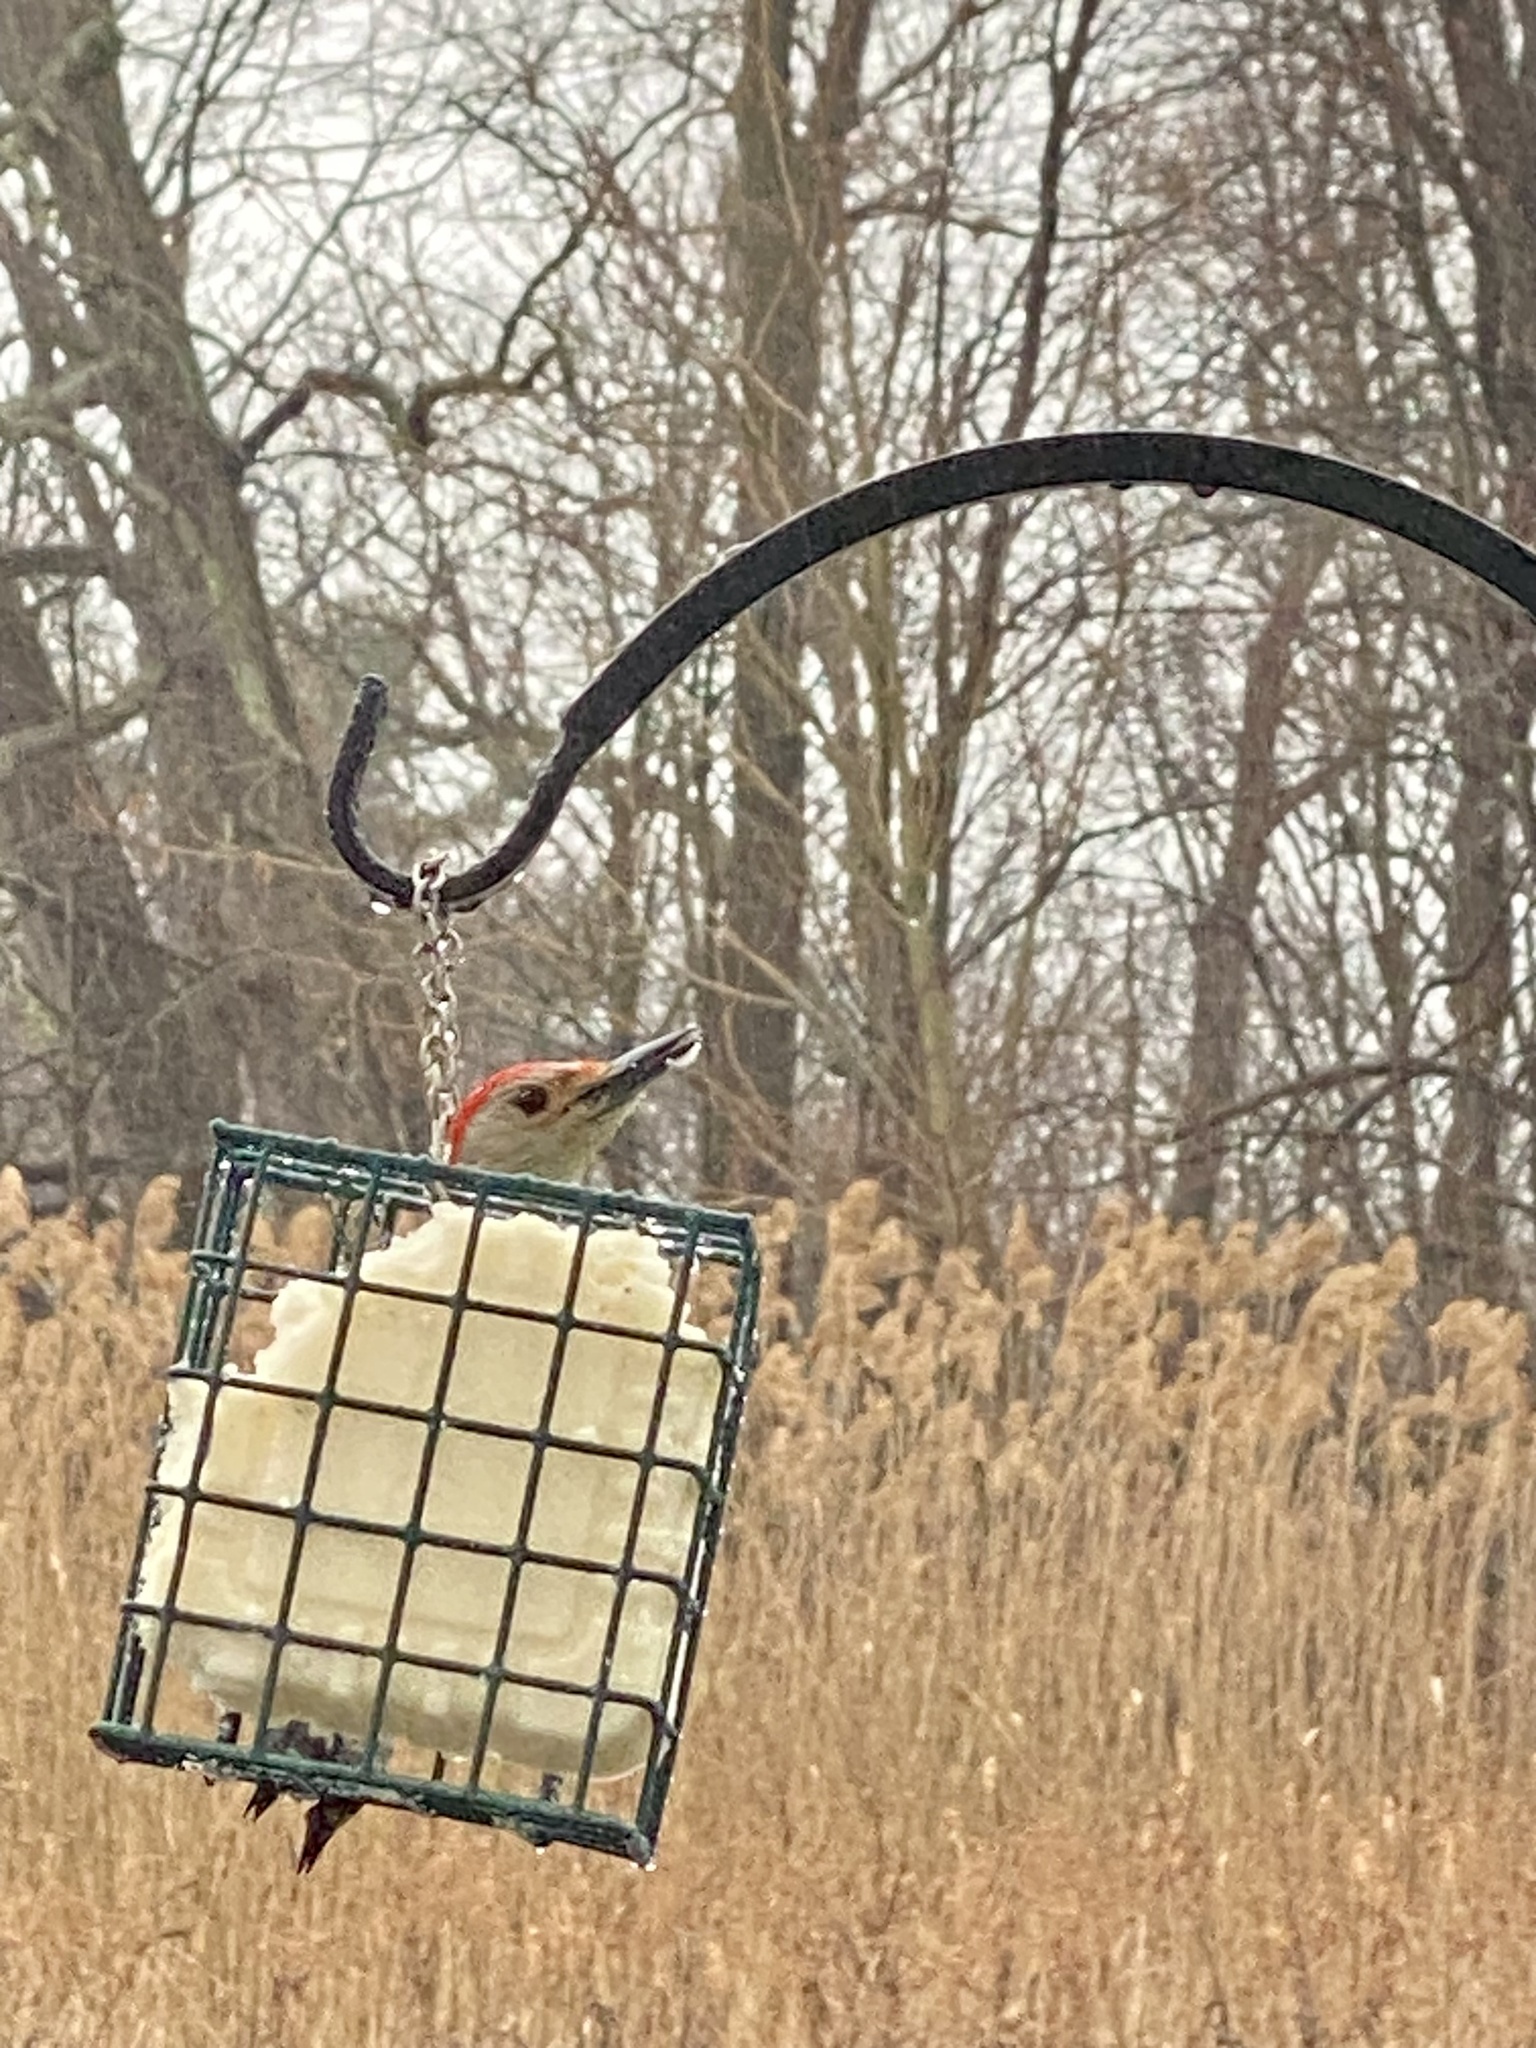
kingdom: Animalia
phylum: Chordata
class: Aves
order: Piciformes
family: Picidae
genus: Melanerpes
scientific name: Melanerpes carolinus
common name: Red-bellied woodpecker
